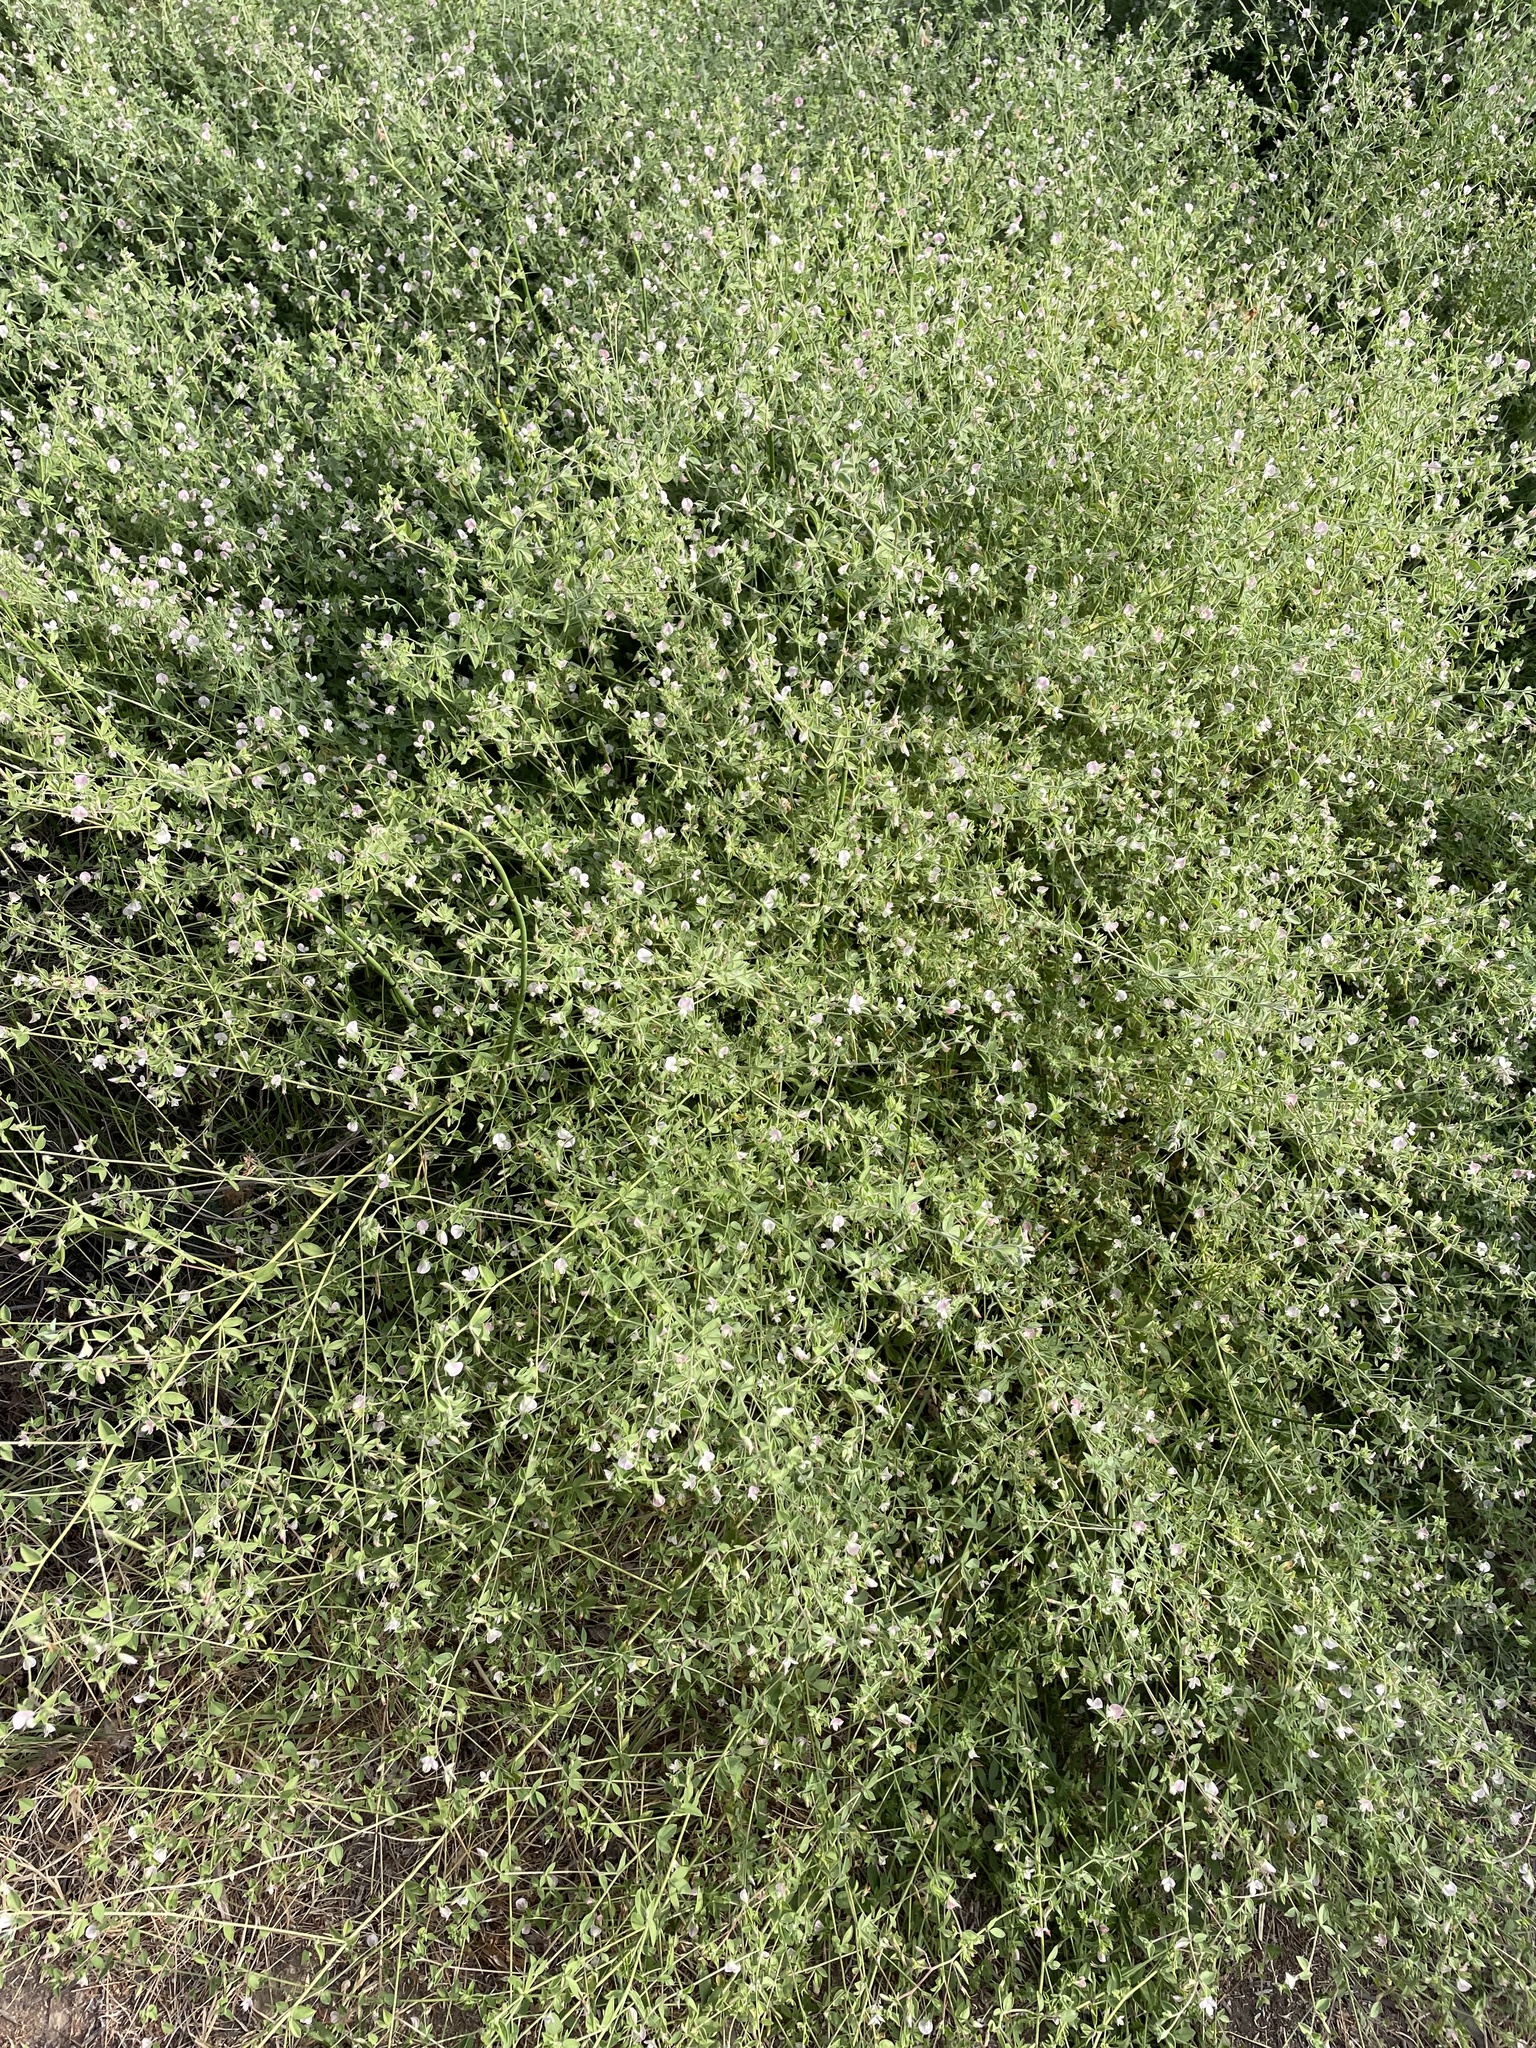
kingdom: Plantae
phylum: Tracheophyta
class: Magnoliopsida
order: Fabales
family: Fabaceae
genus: Acmispon
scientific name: Acmispon americanus
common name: American bird's-foot trefoil
